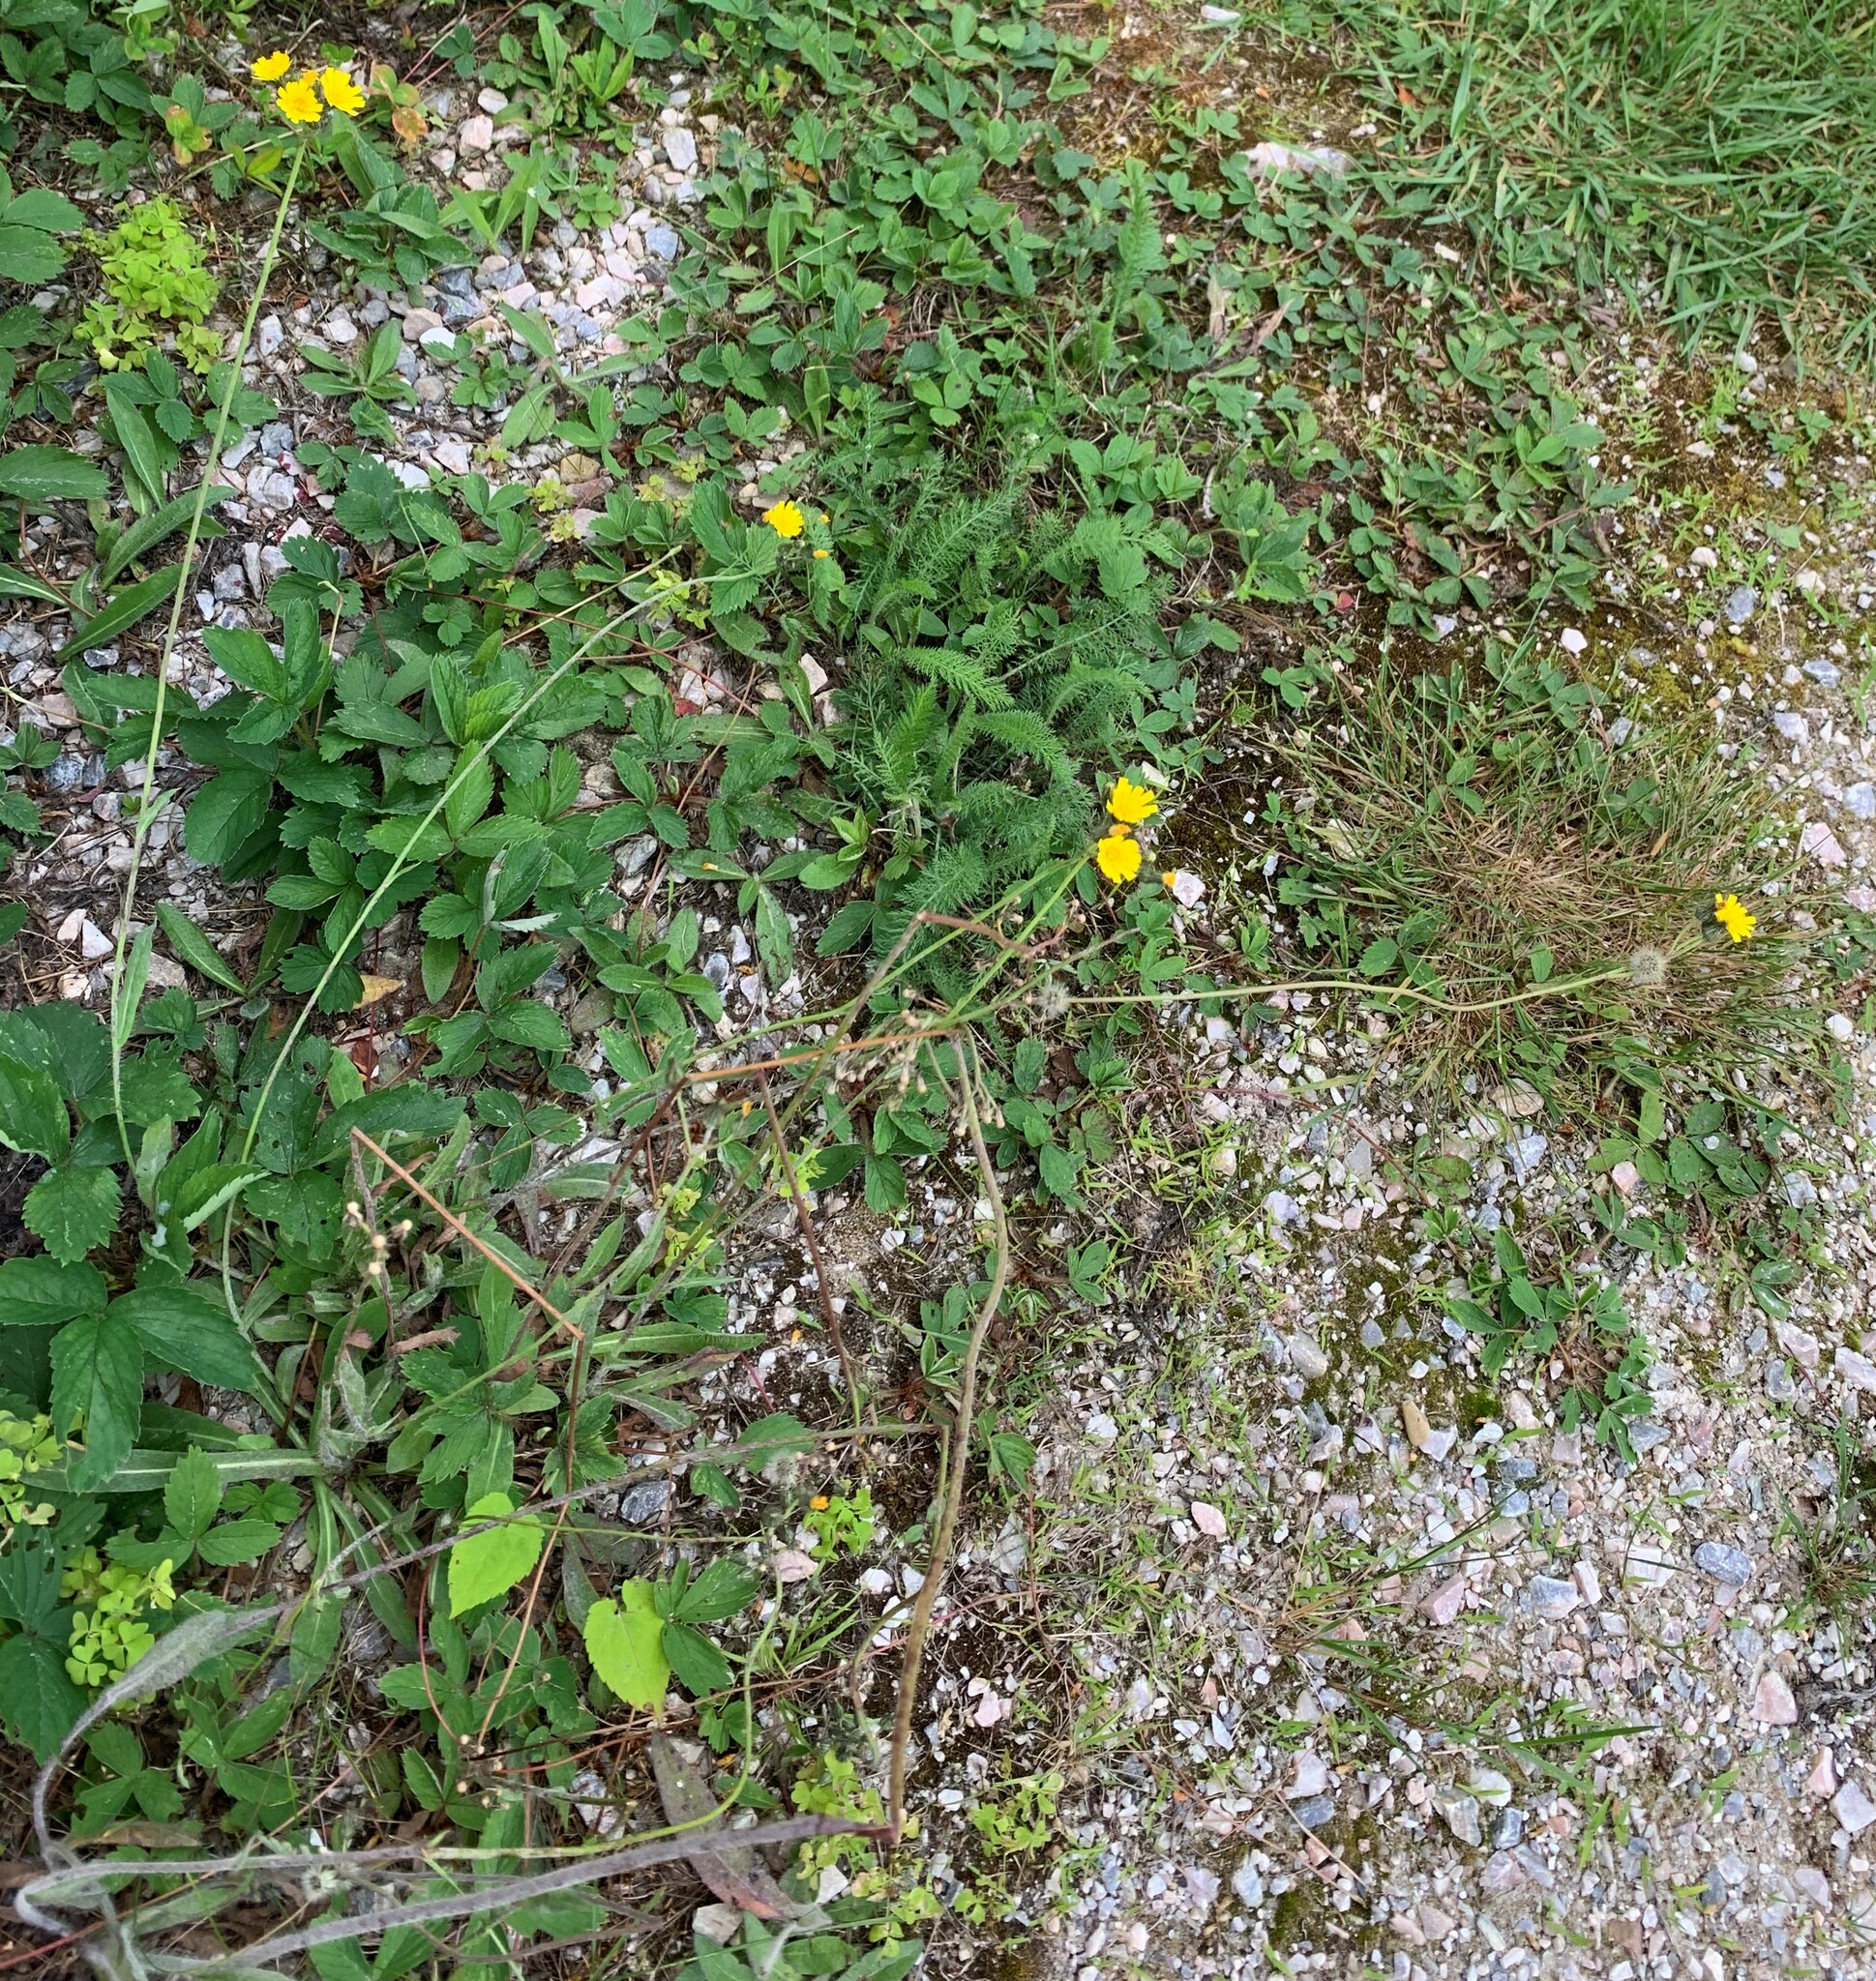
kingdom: Plantae
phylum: Tracheophyta
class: Magnoliopsida
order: Asterales
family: Asteraceae
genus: Pilosella
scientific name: Pilosella caespitosa
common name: Yellow fox-and-cubs
